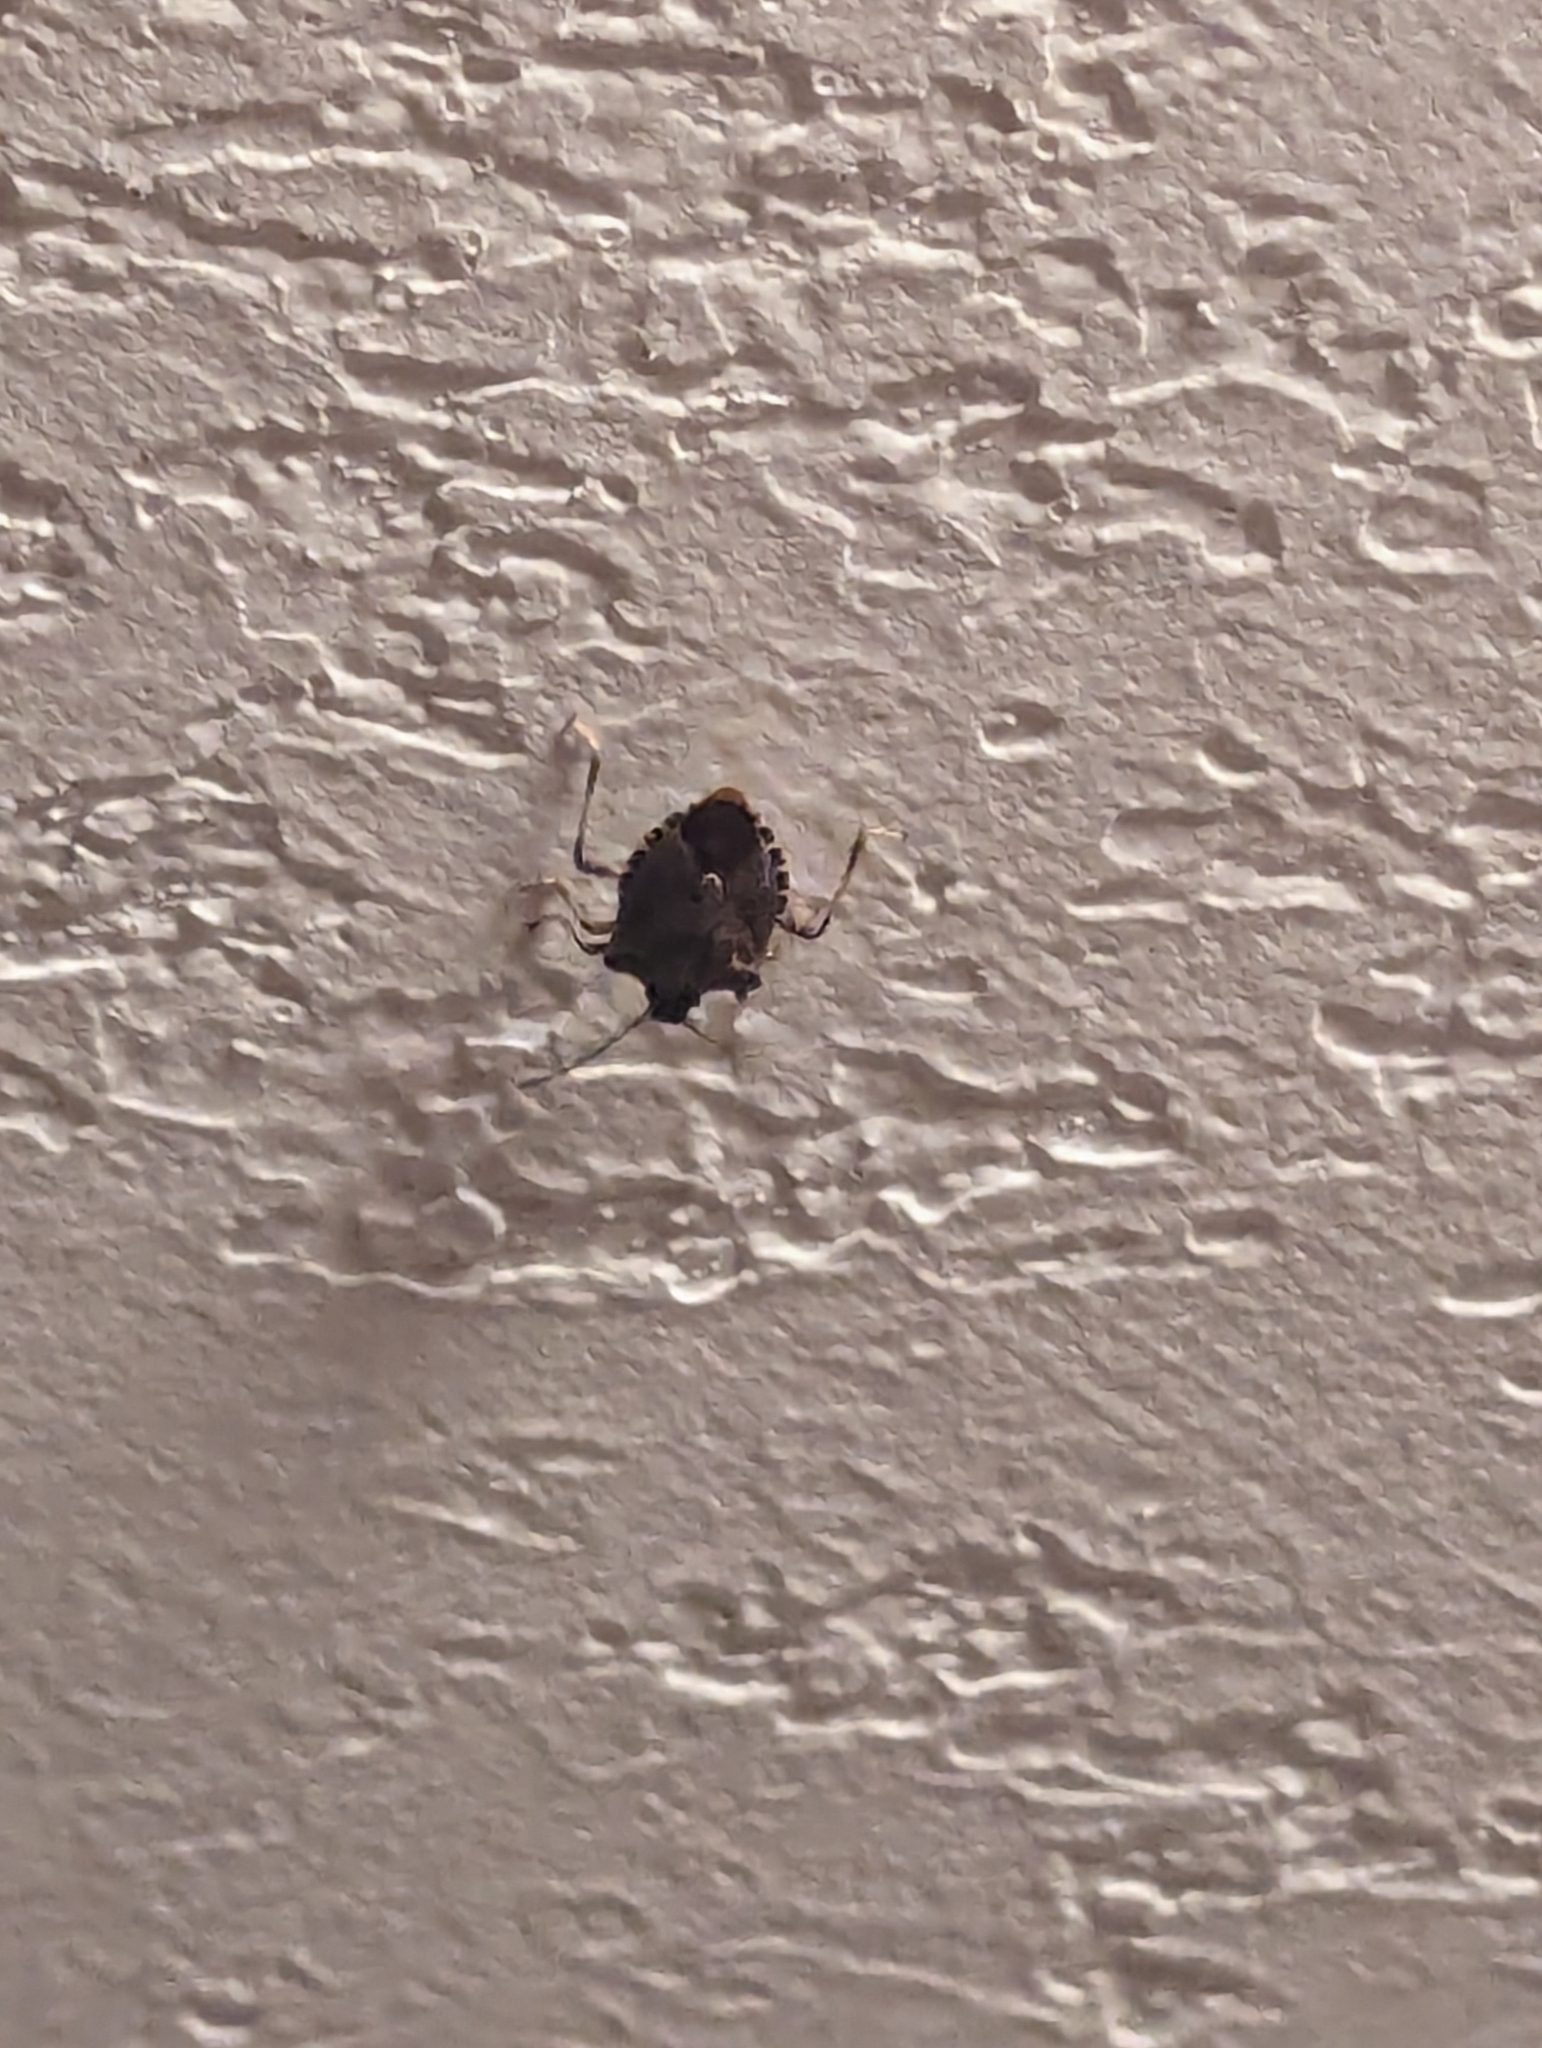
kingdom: Animalia
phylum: Arthropoda
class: Insecta
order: Hemiptera
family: Pentatomidae
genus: Halyomorpha
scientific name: Halyomorpha halys
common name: Brown marmorated stink bug
